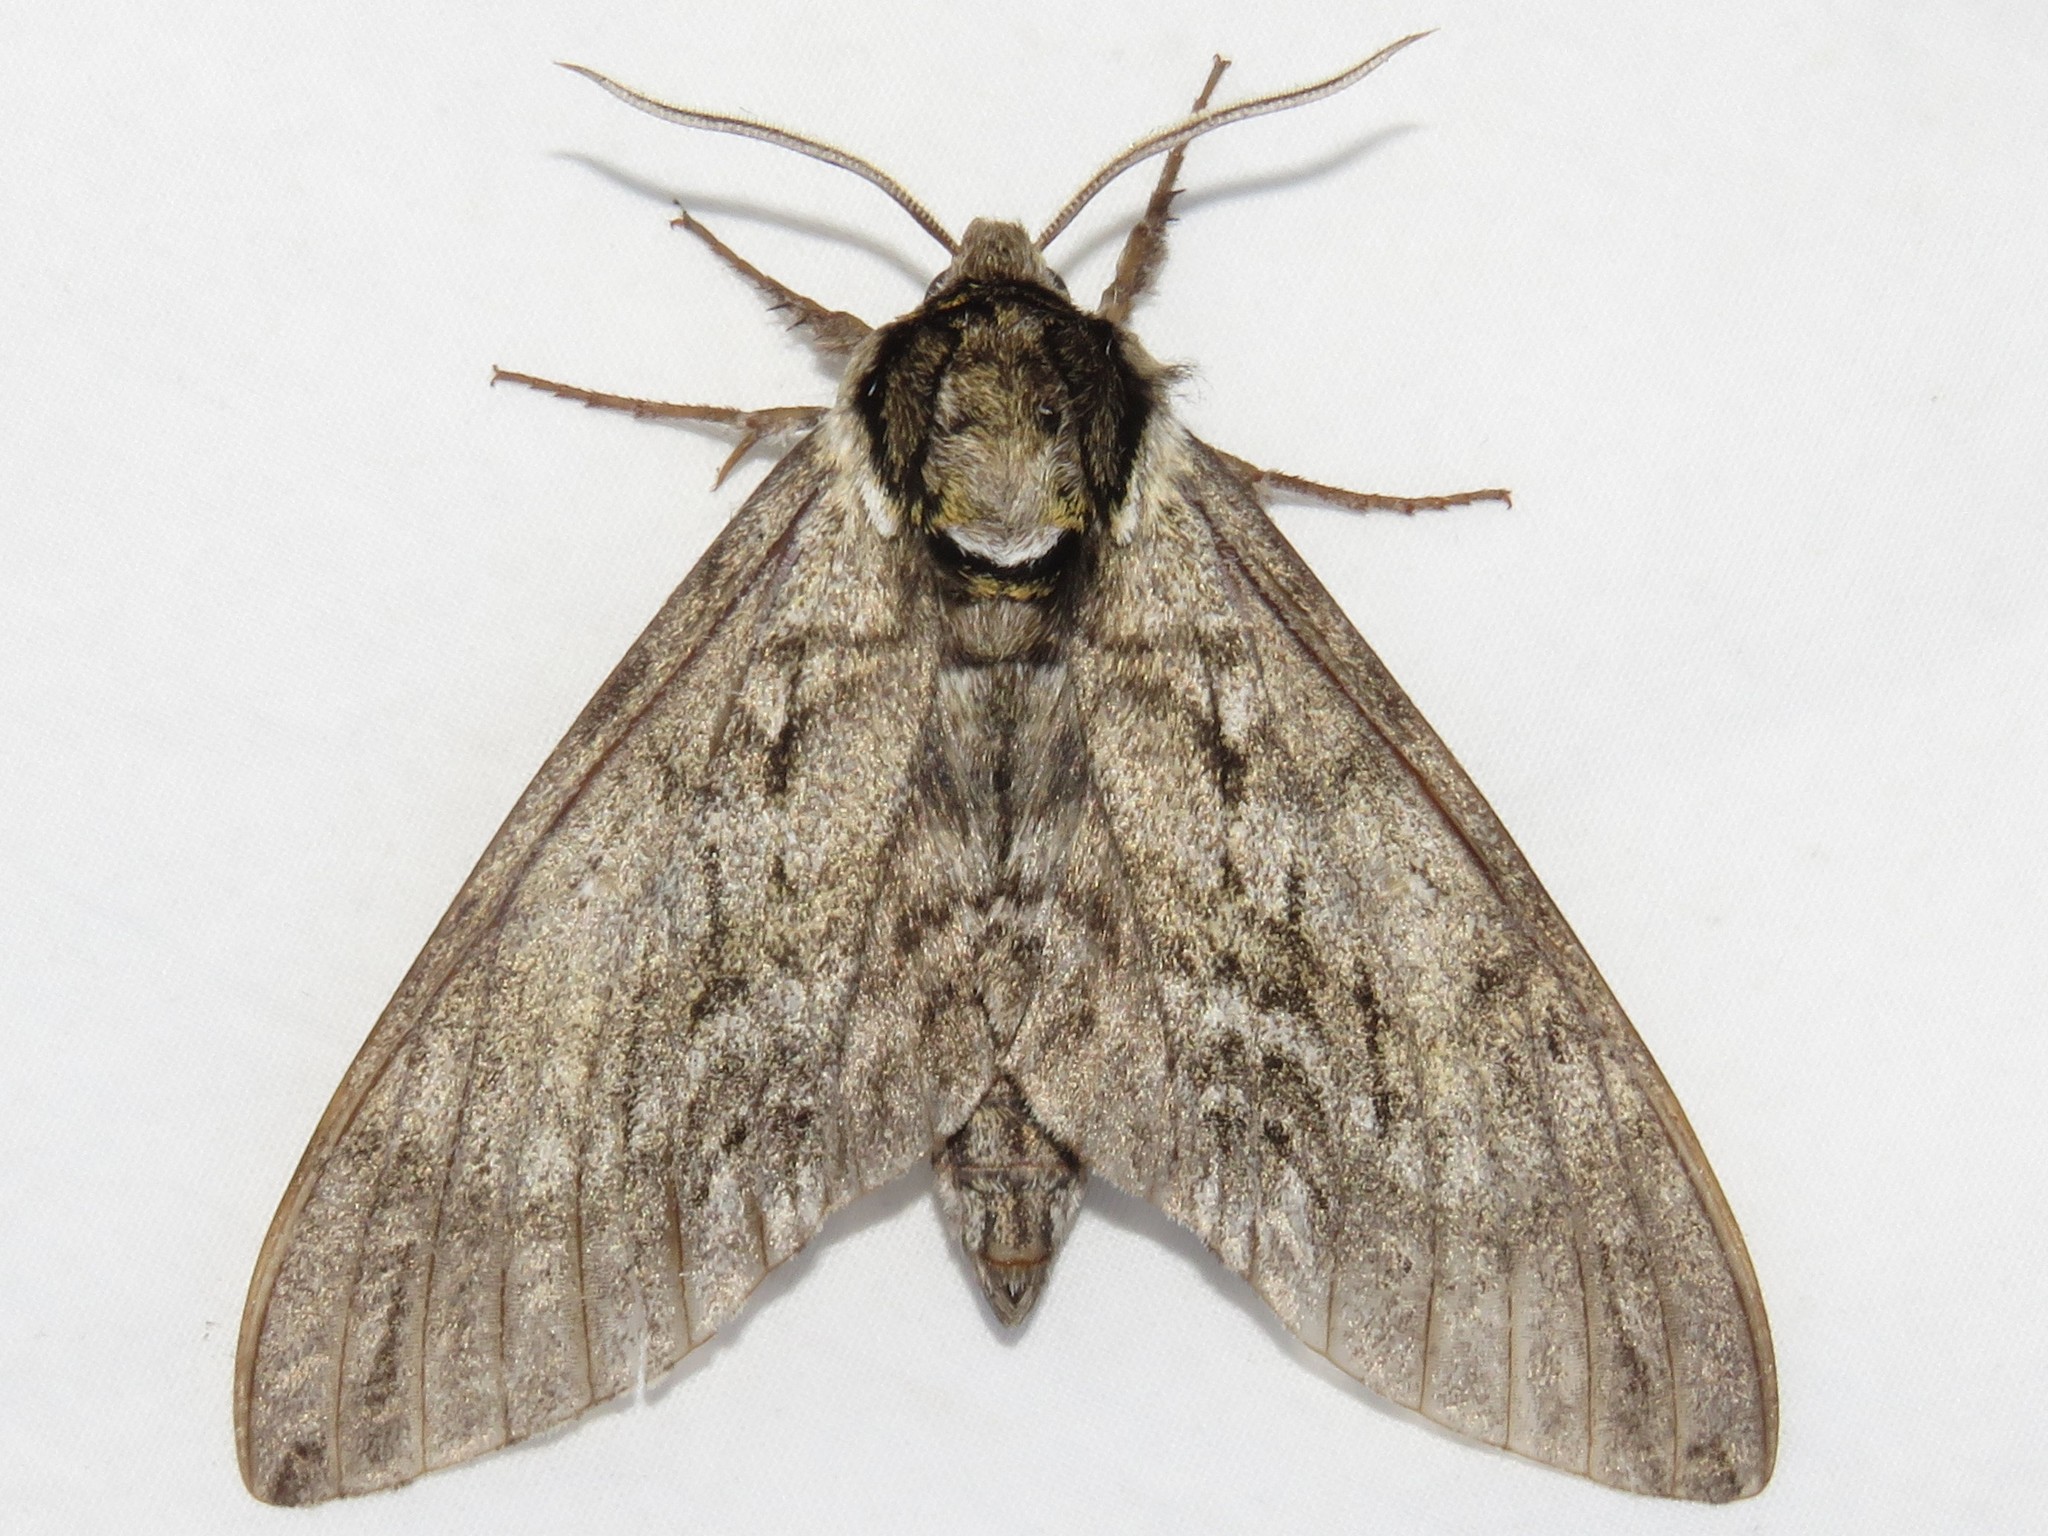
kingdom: Animalia
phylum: Arthropoda
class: Insecta
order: Lepidoptera
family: Sphingidae
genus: Ceratomia
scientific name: Ceratomia undulosa
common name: Waved sphinx
